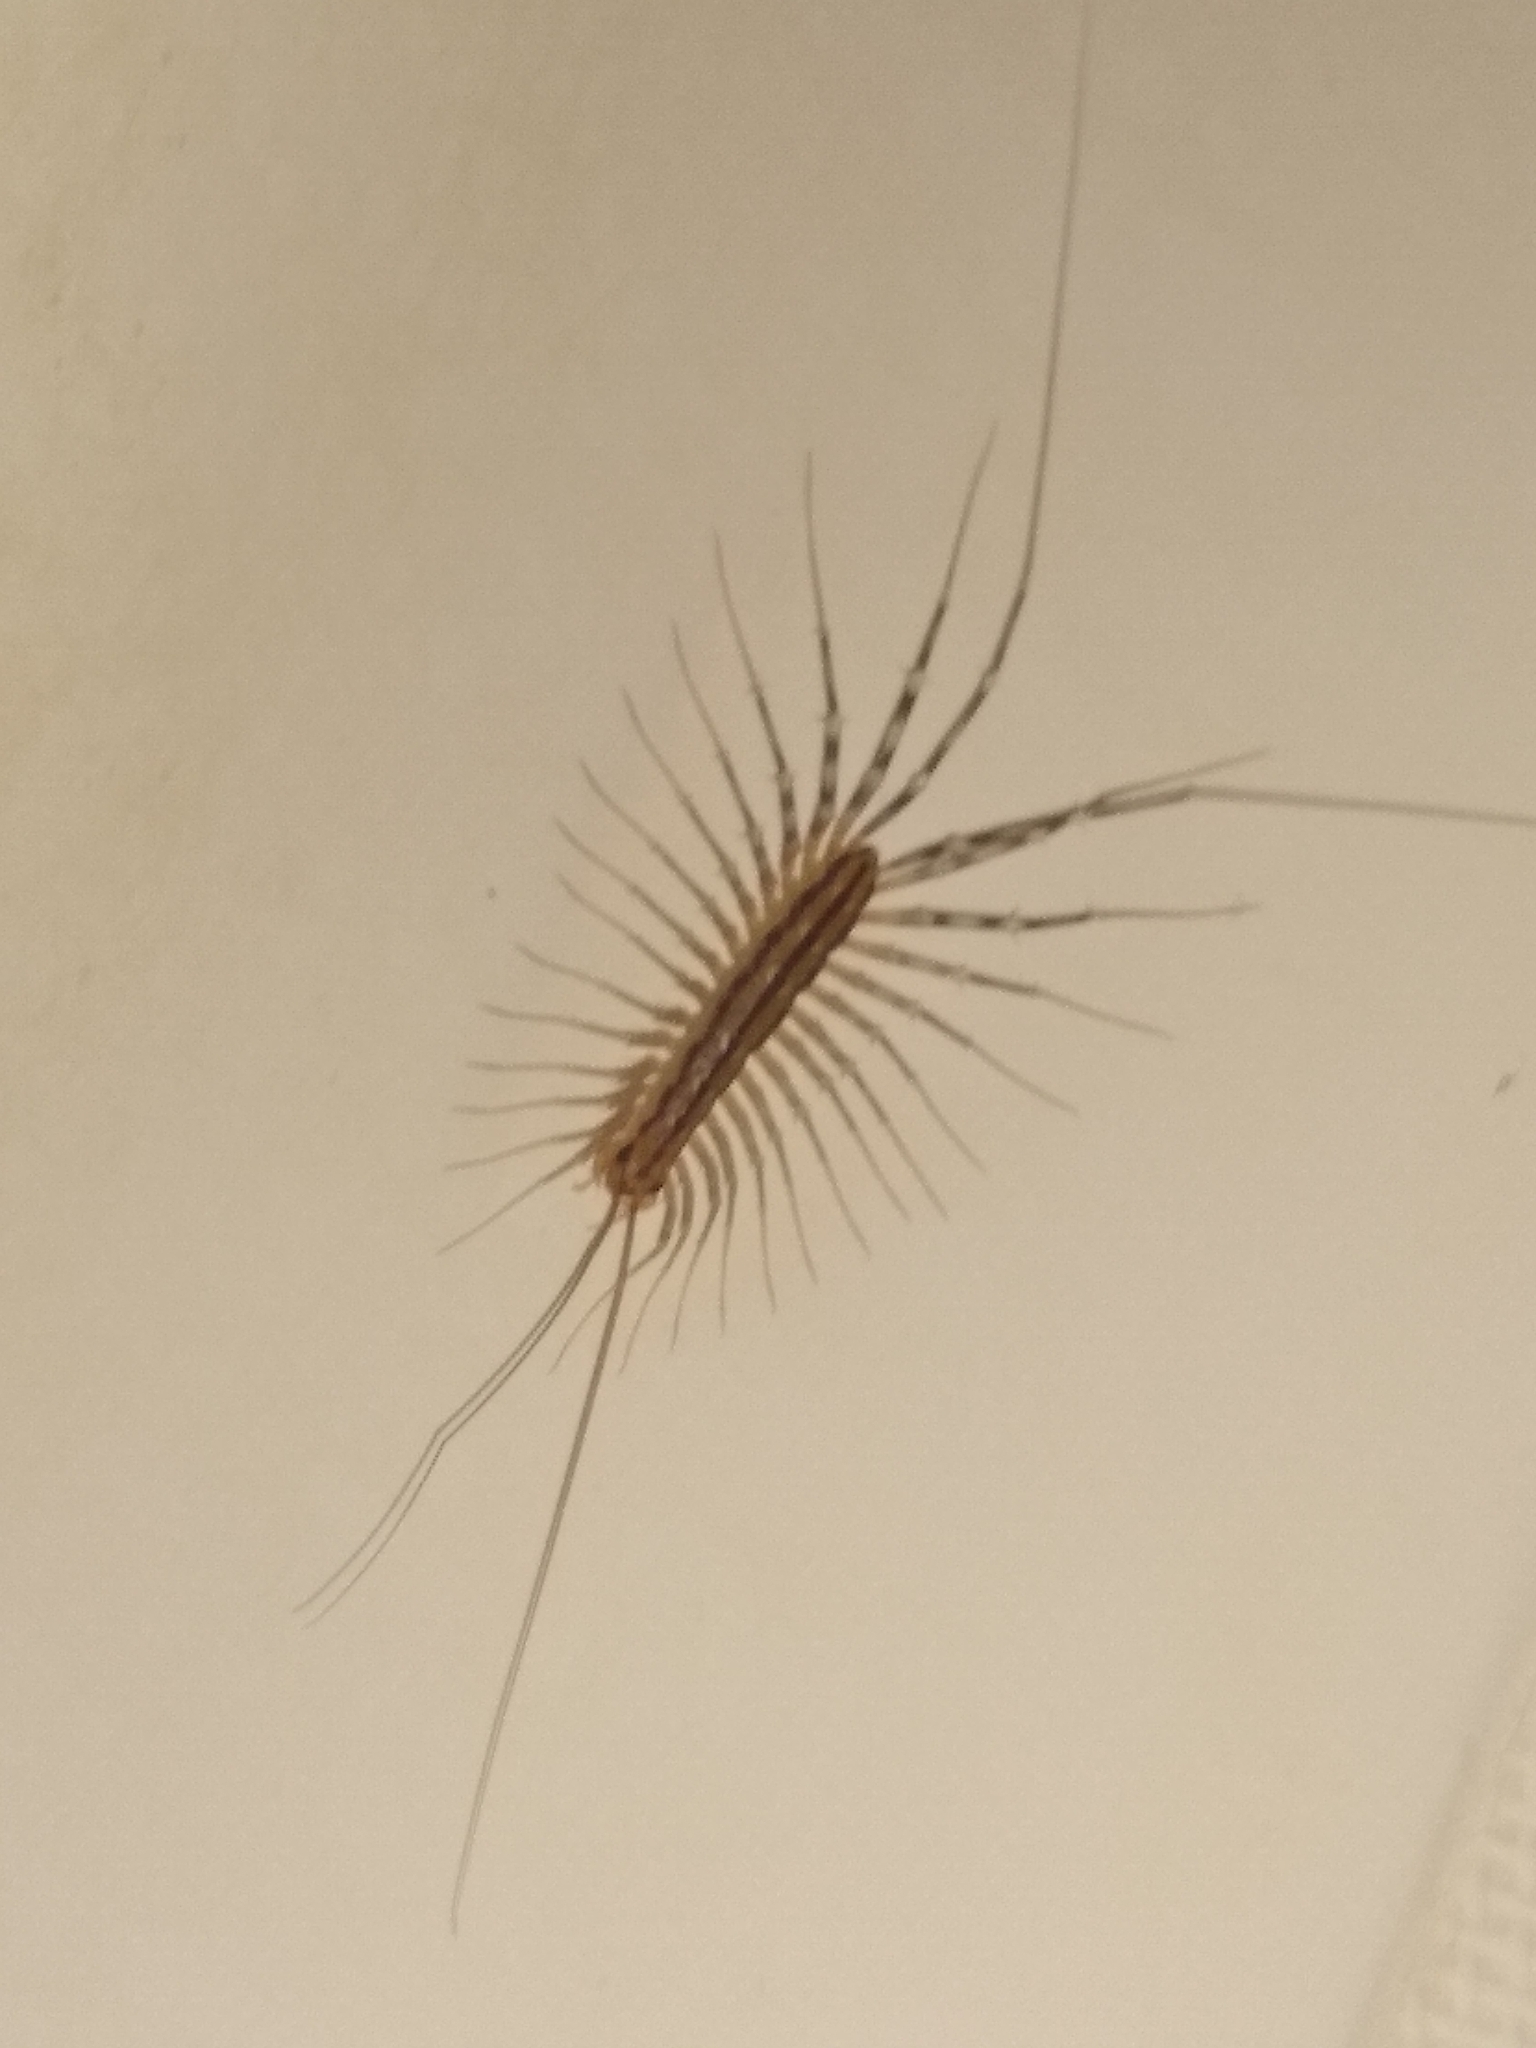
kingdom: Animalia
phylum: Arthropoda
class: Chilopoda
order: Scutigeromorpha
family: Scutigeridae
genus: Scutigera
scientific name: Scutigera coleoptrata
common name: House centipede
